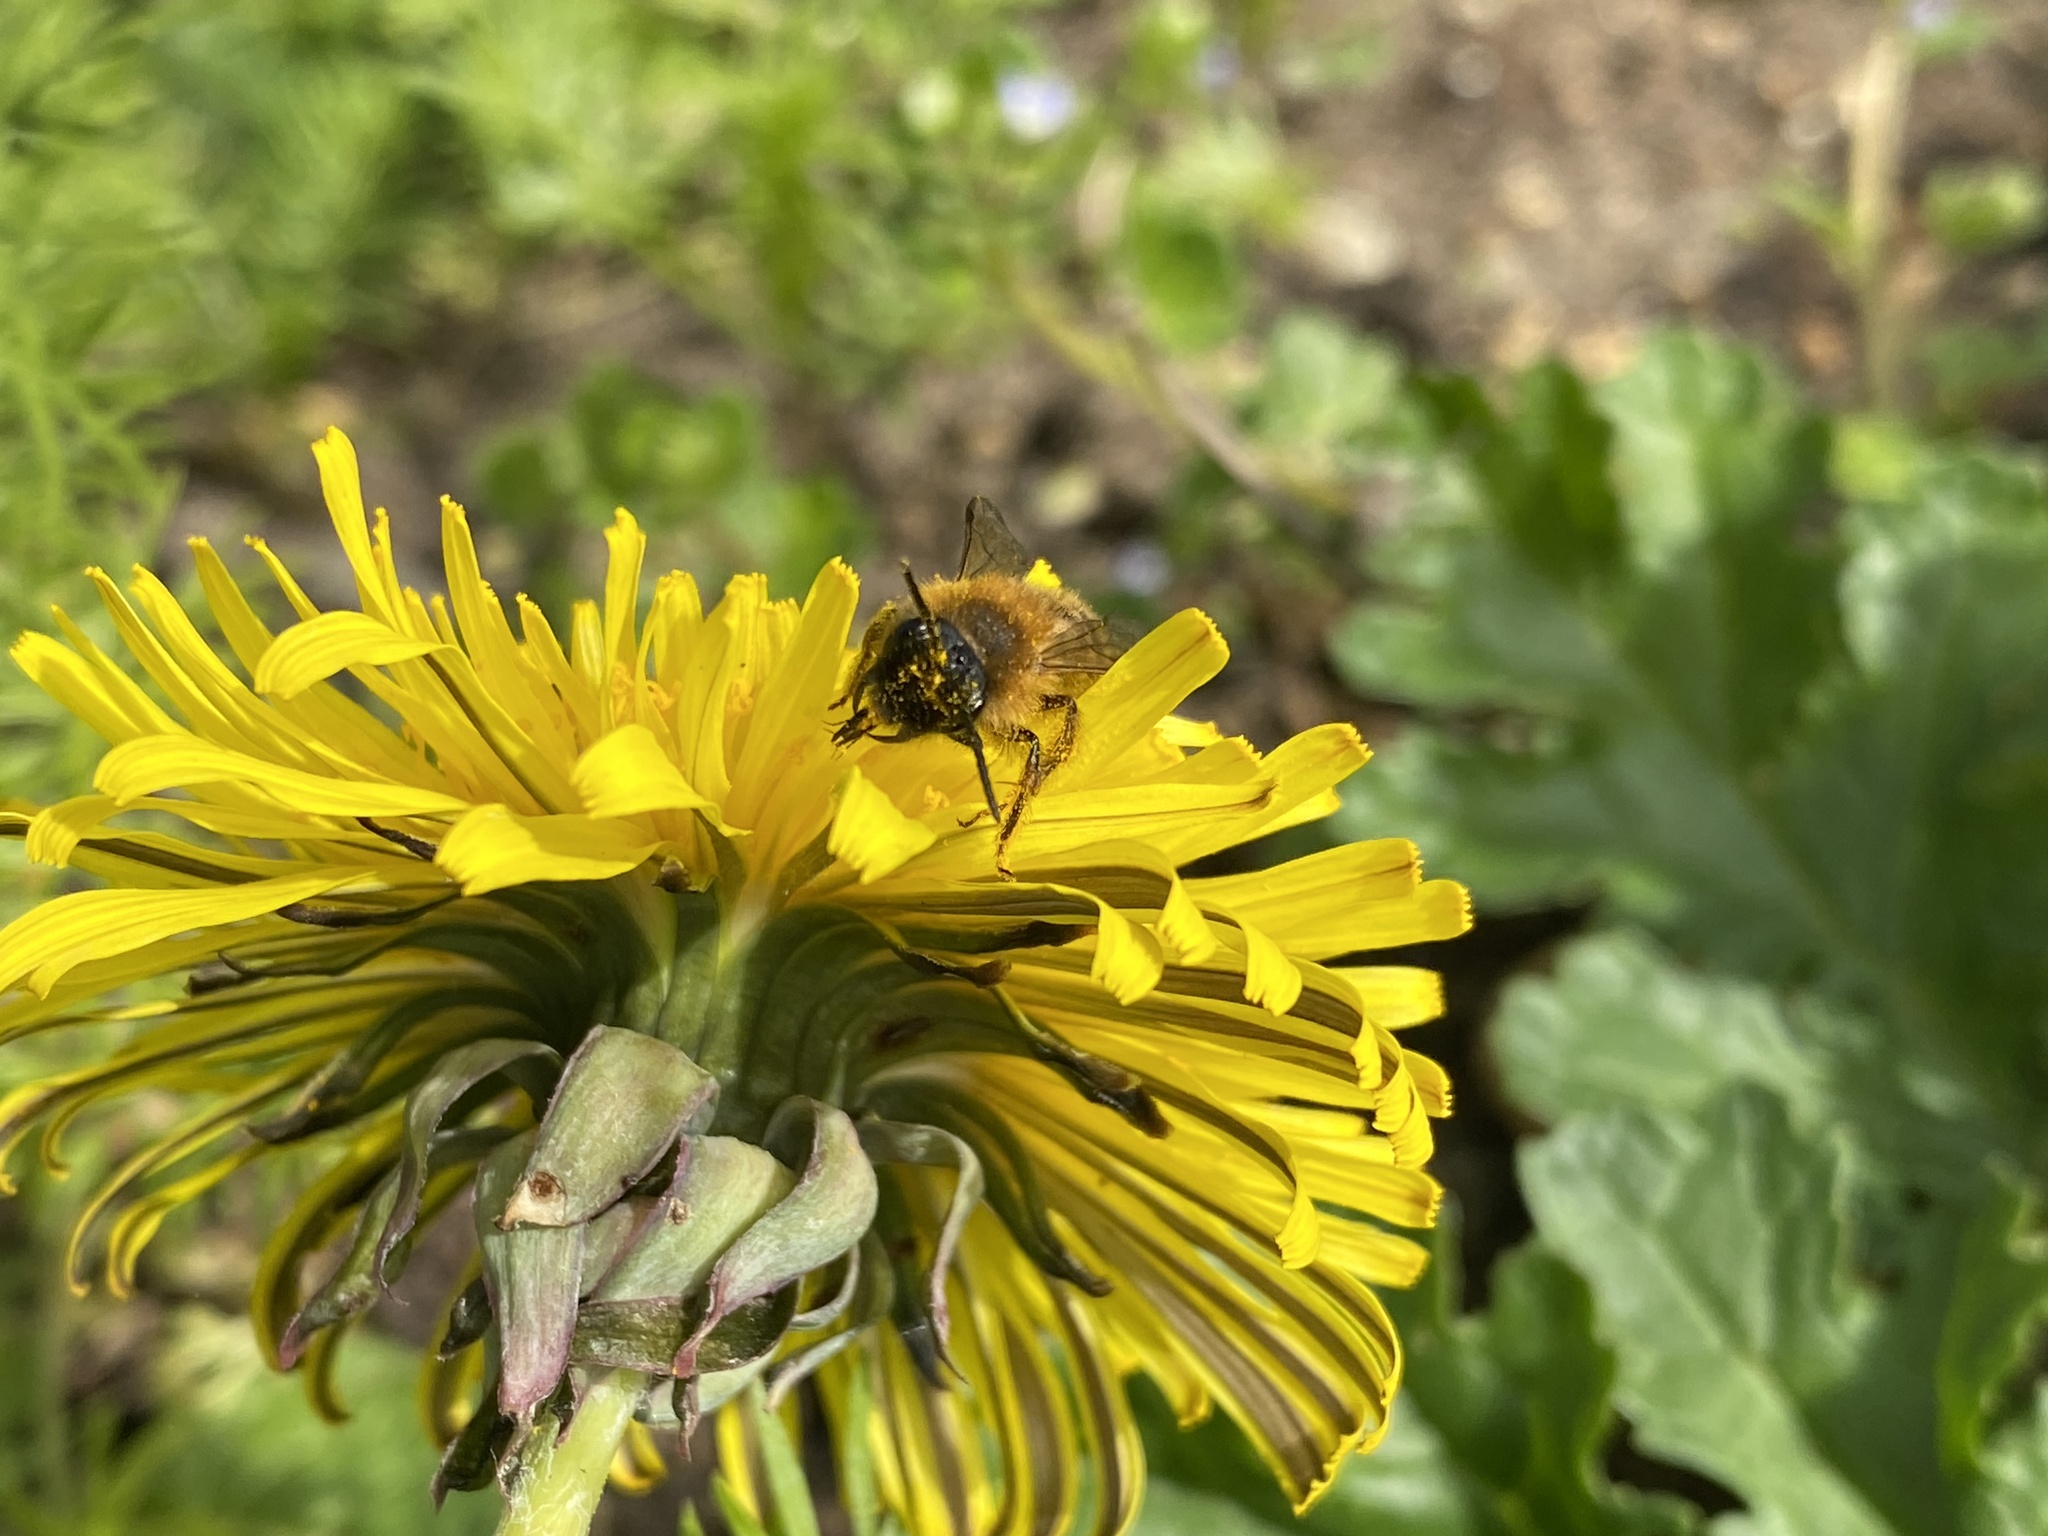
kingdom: Animalia
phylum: Arthropoda
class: Insecta
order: Hymenoptera
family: Andrenidae
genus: Andrena
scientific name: Andrena nigroaenea
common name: Buffish mining bee
